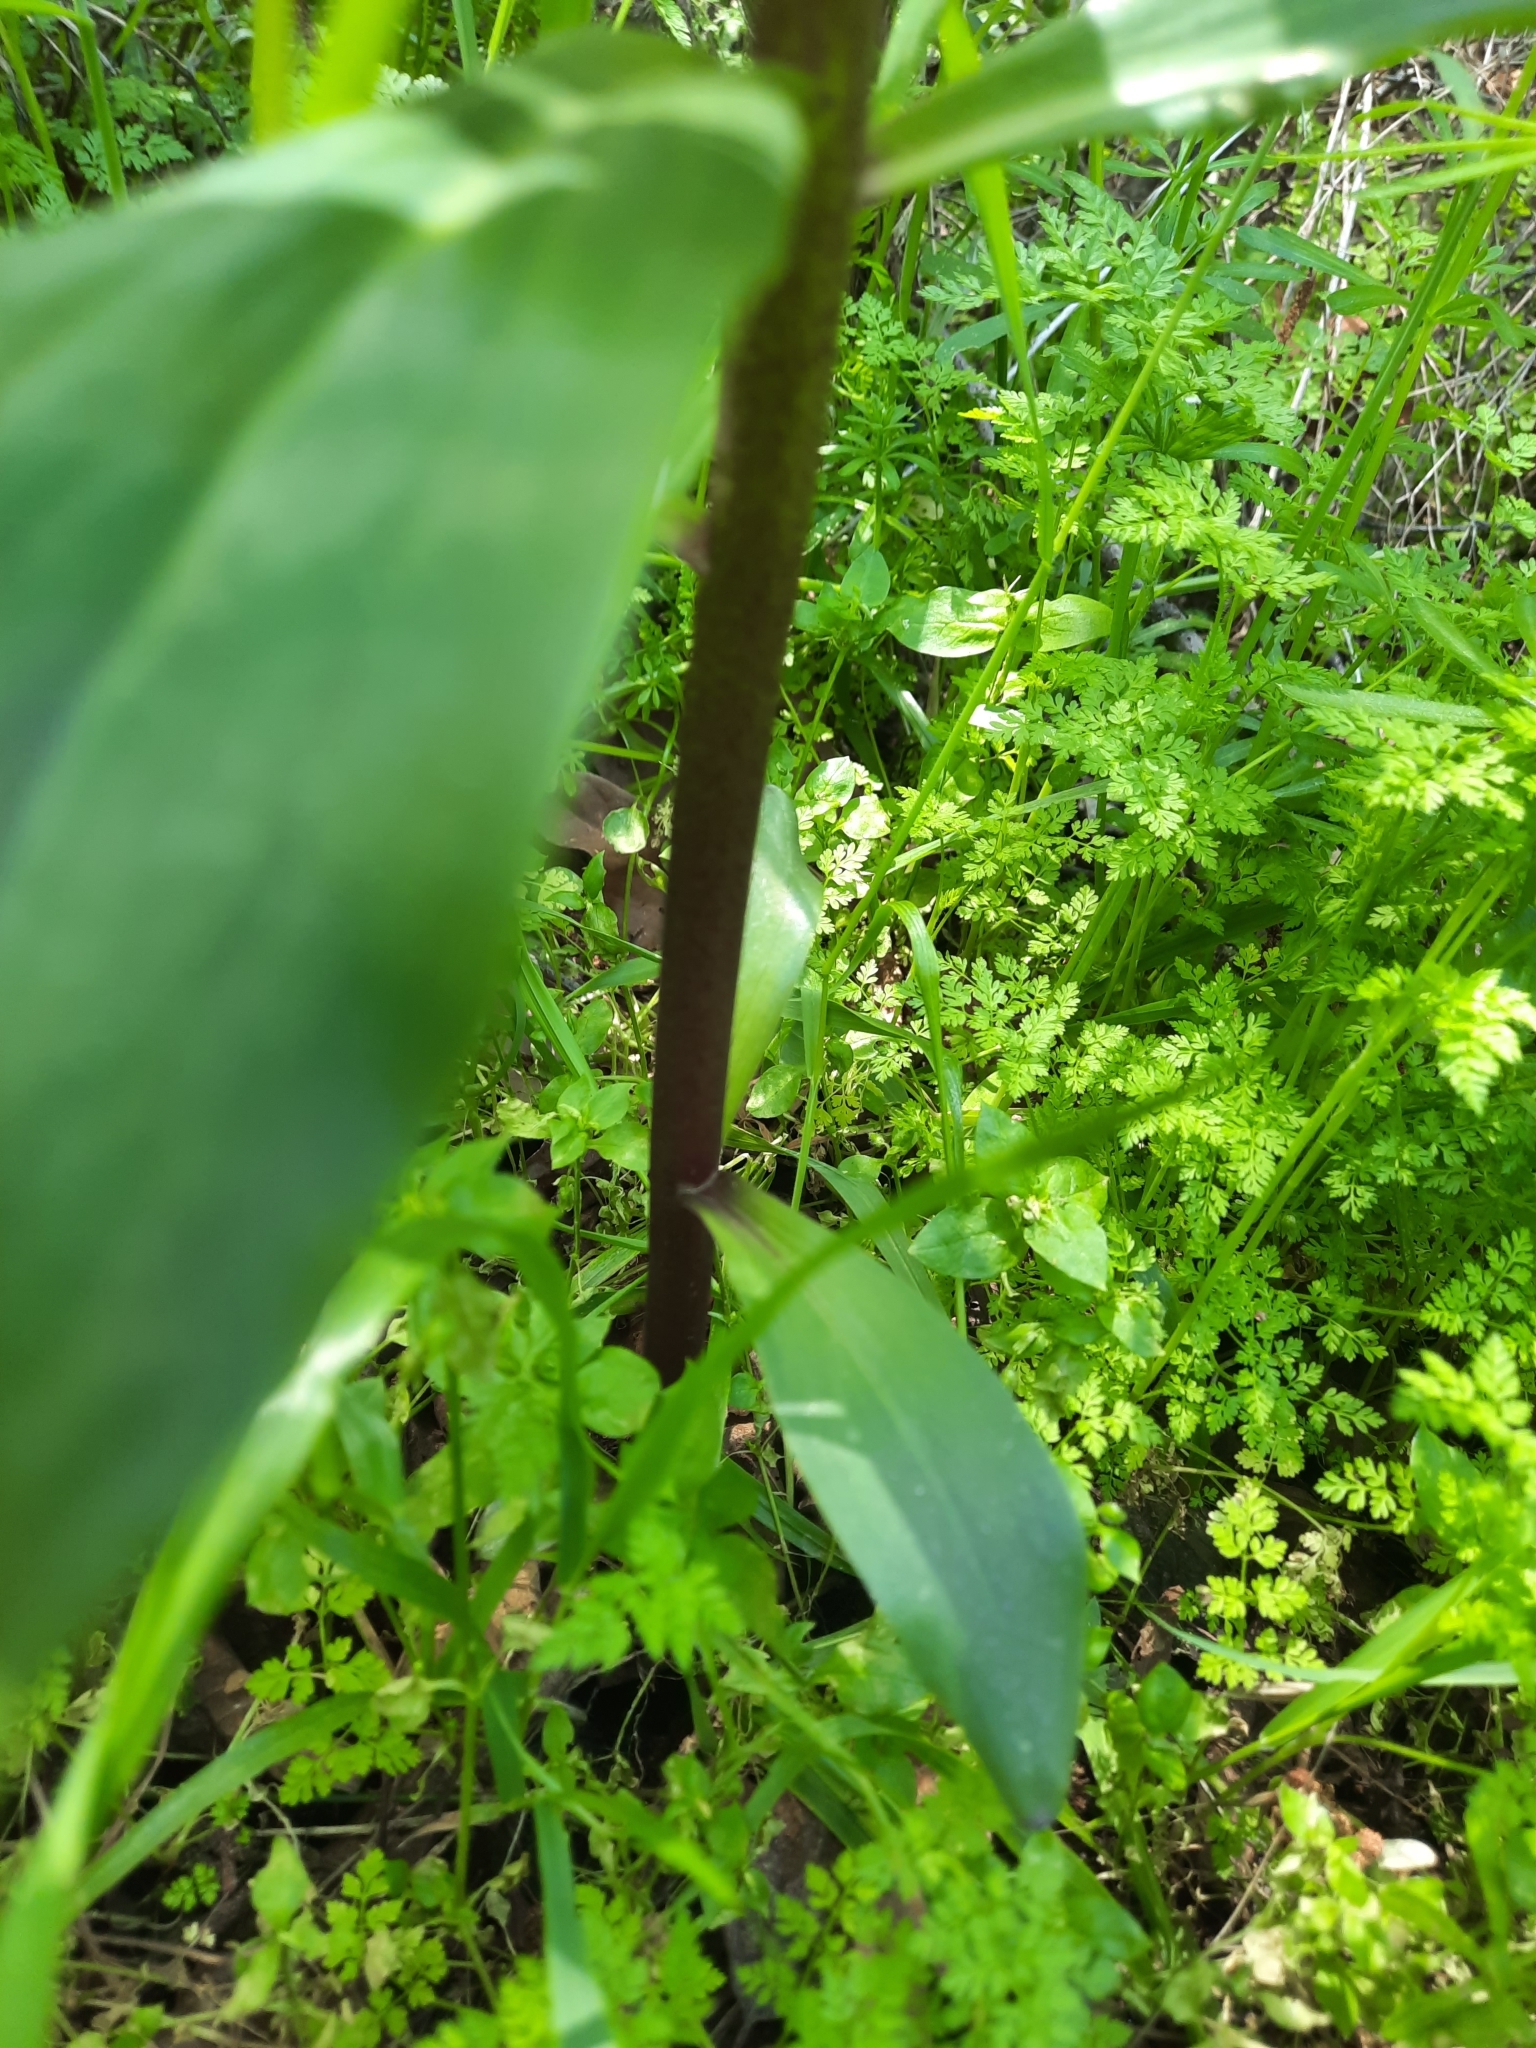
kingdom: Plantae
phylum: Tracheophyta
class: Liliopsida
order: Liliales
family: Liliaceae
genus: Lilium
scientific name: Lilium humboldtii
